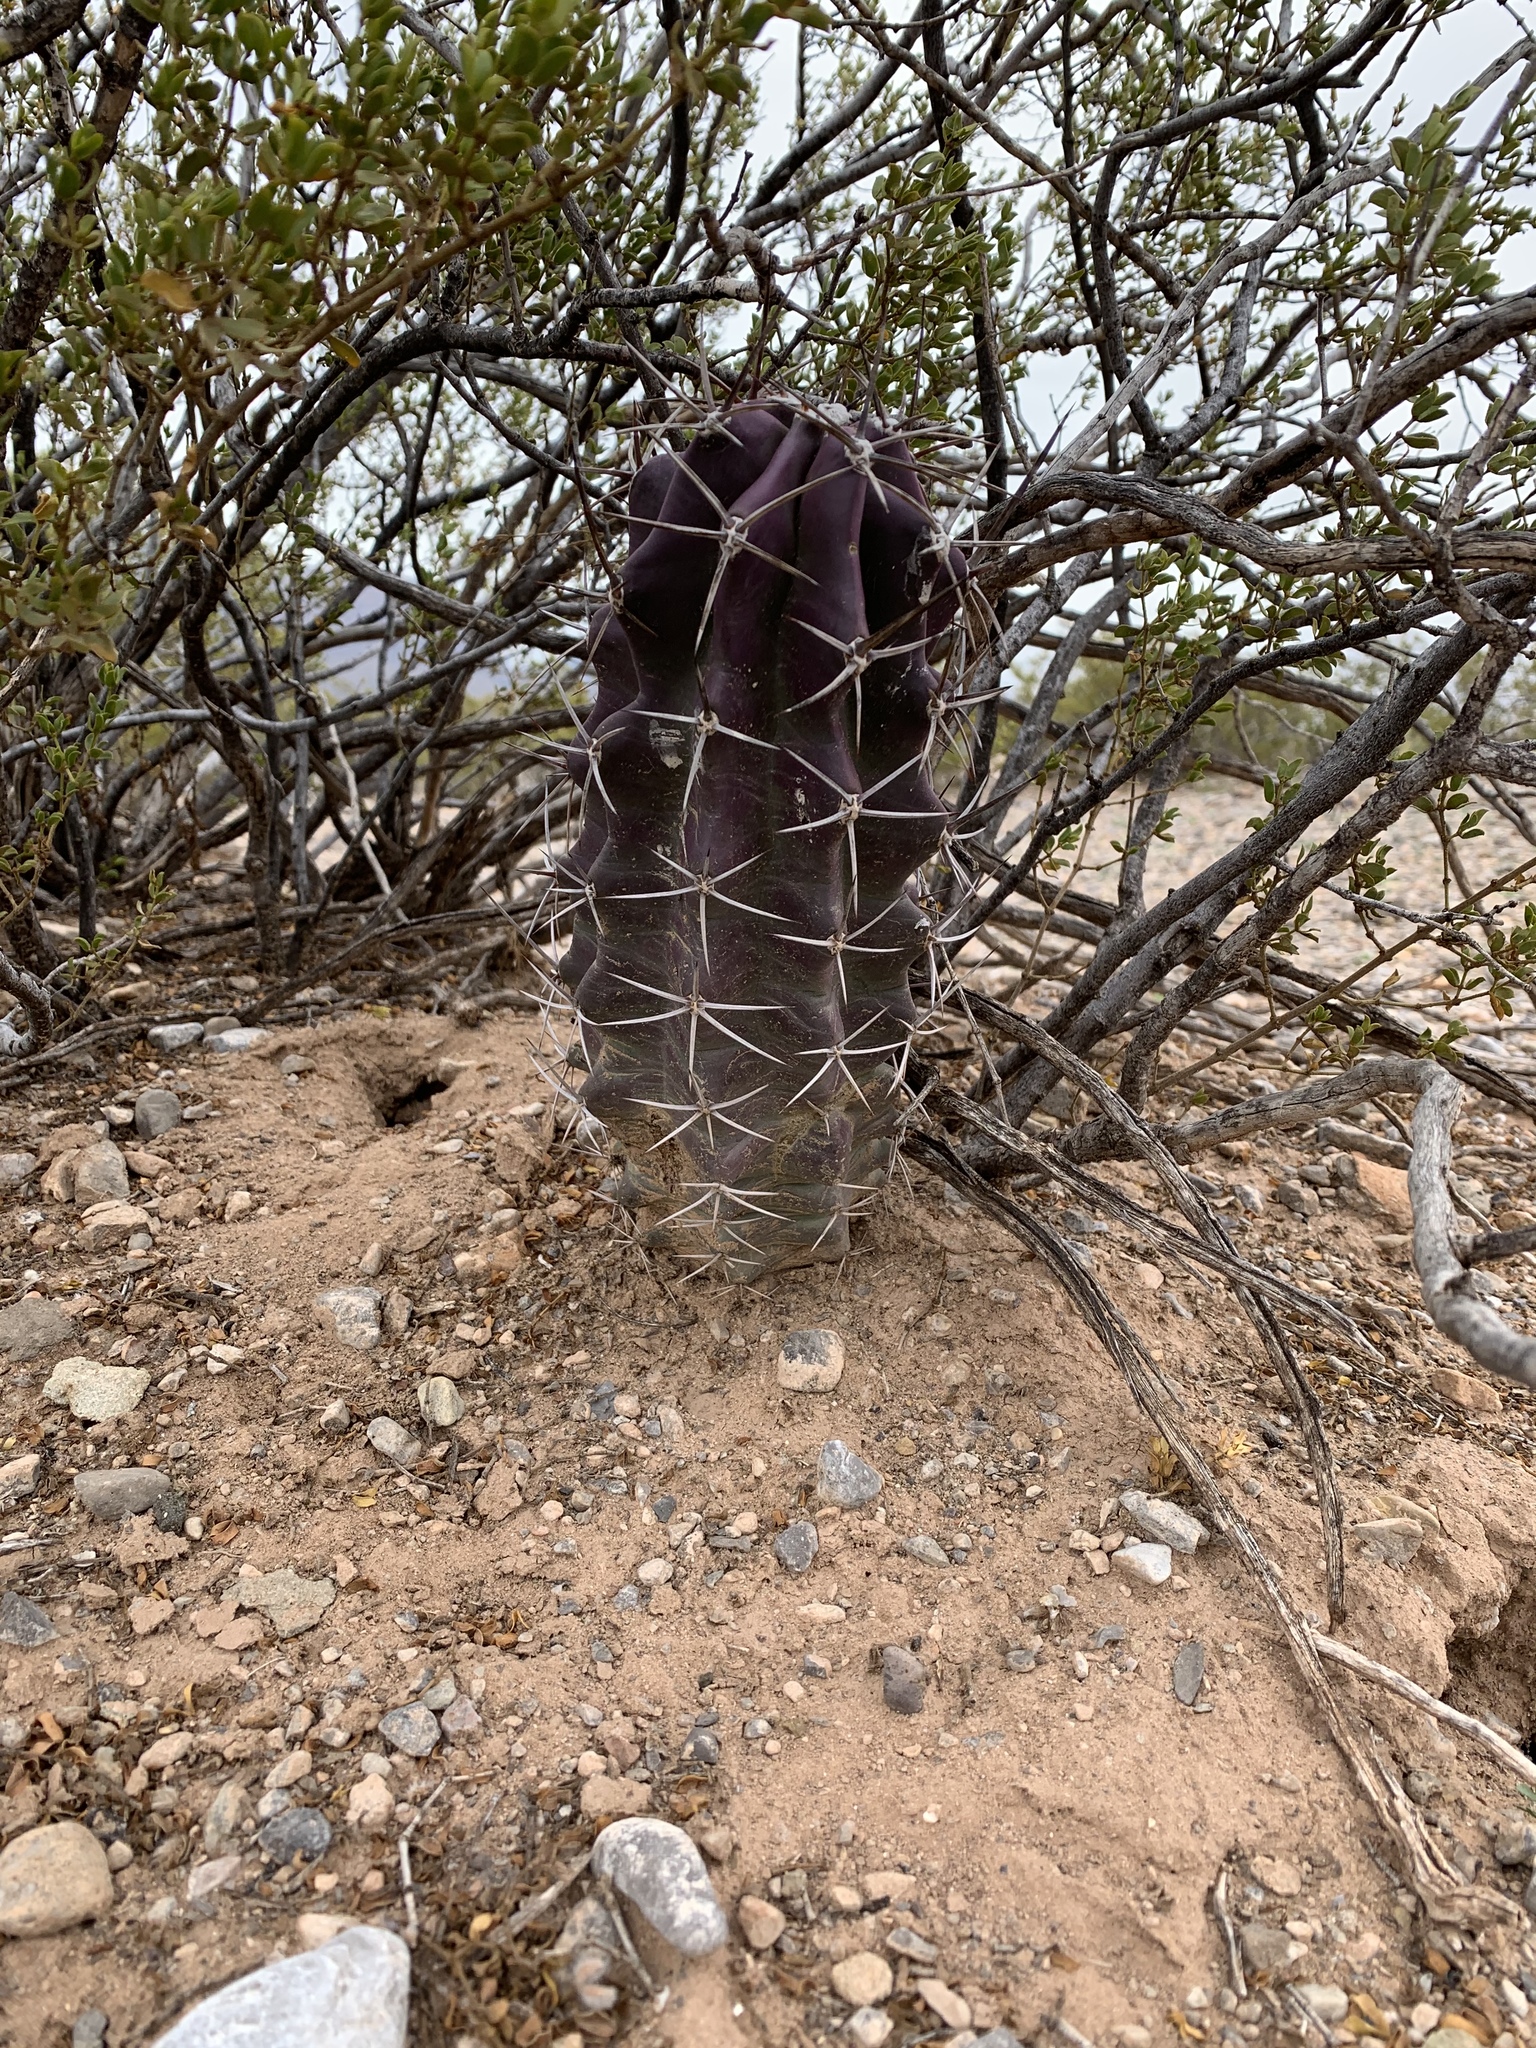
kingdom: Plantae
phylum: Tracheophyta
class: Magnoliopsida
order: Caryophyllales
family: Cactaceae
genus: Echinocereus
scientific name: Echinocereus triglochidiatus
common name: Claretcup hedgehog
